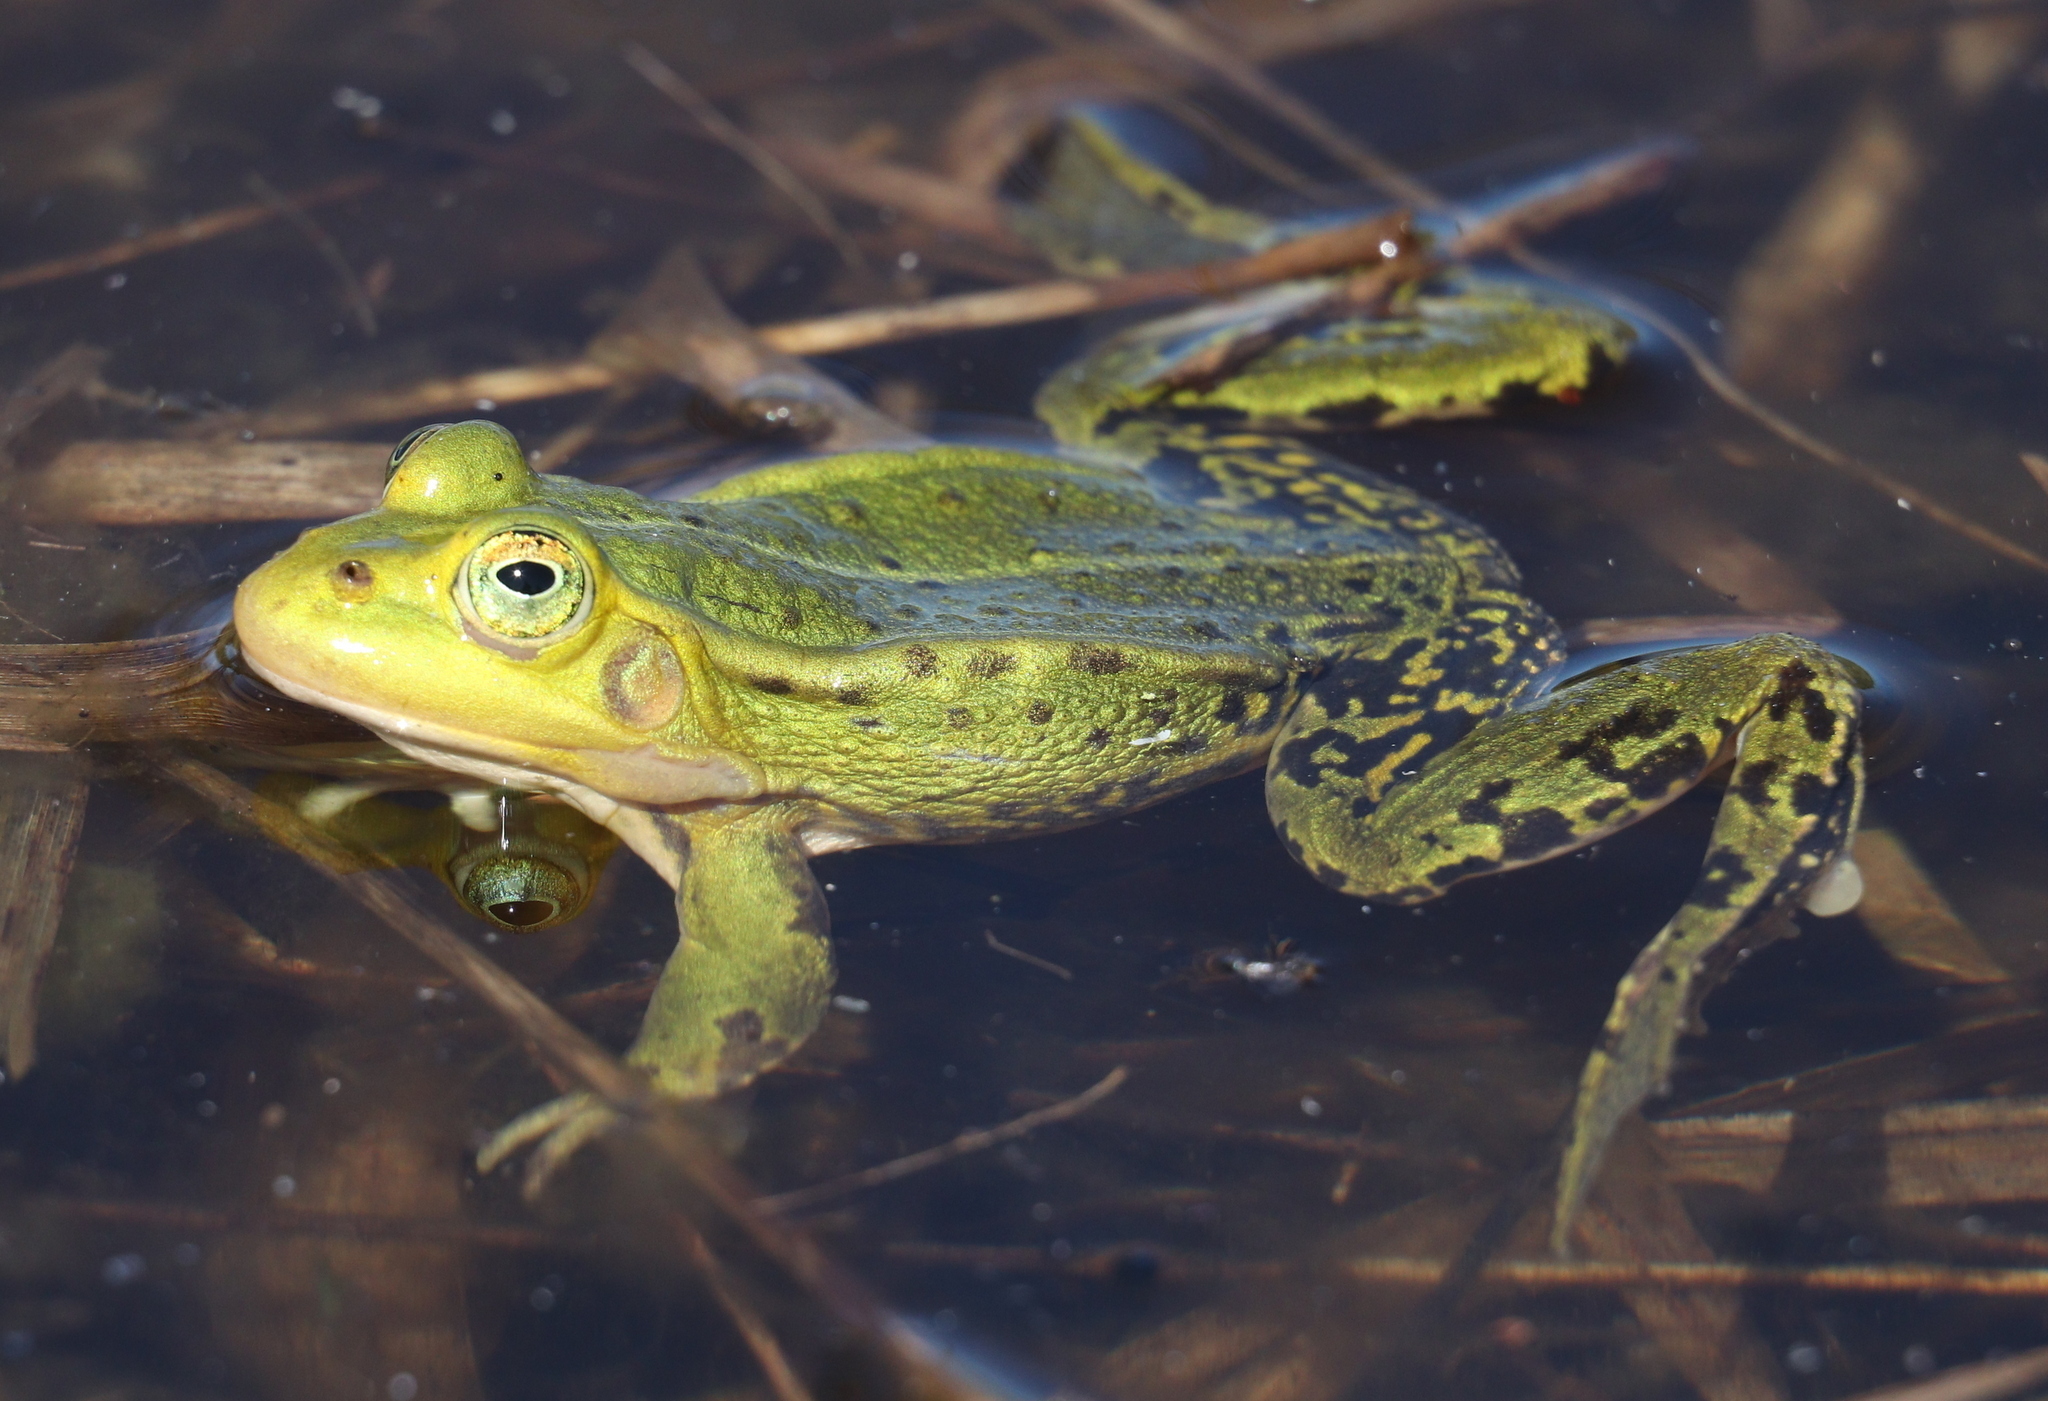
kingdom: Animalia
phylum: Chordata
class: Amphibia
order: Anura
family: Ranidae
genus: Pelophylax
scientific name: Pelophylax lessonae
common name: Pool frog
